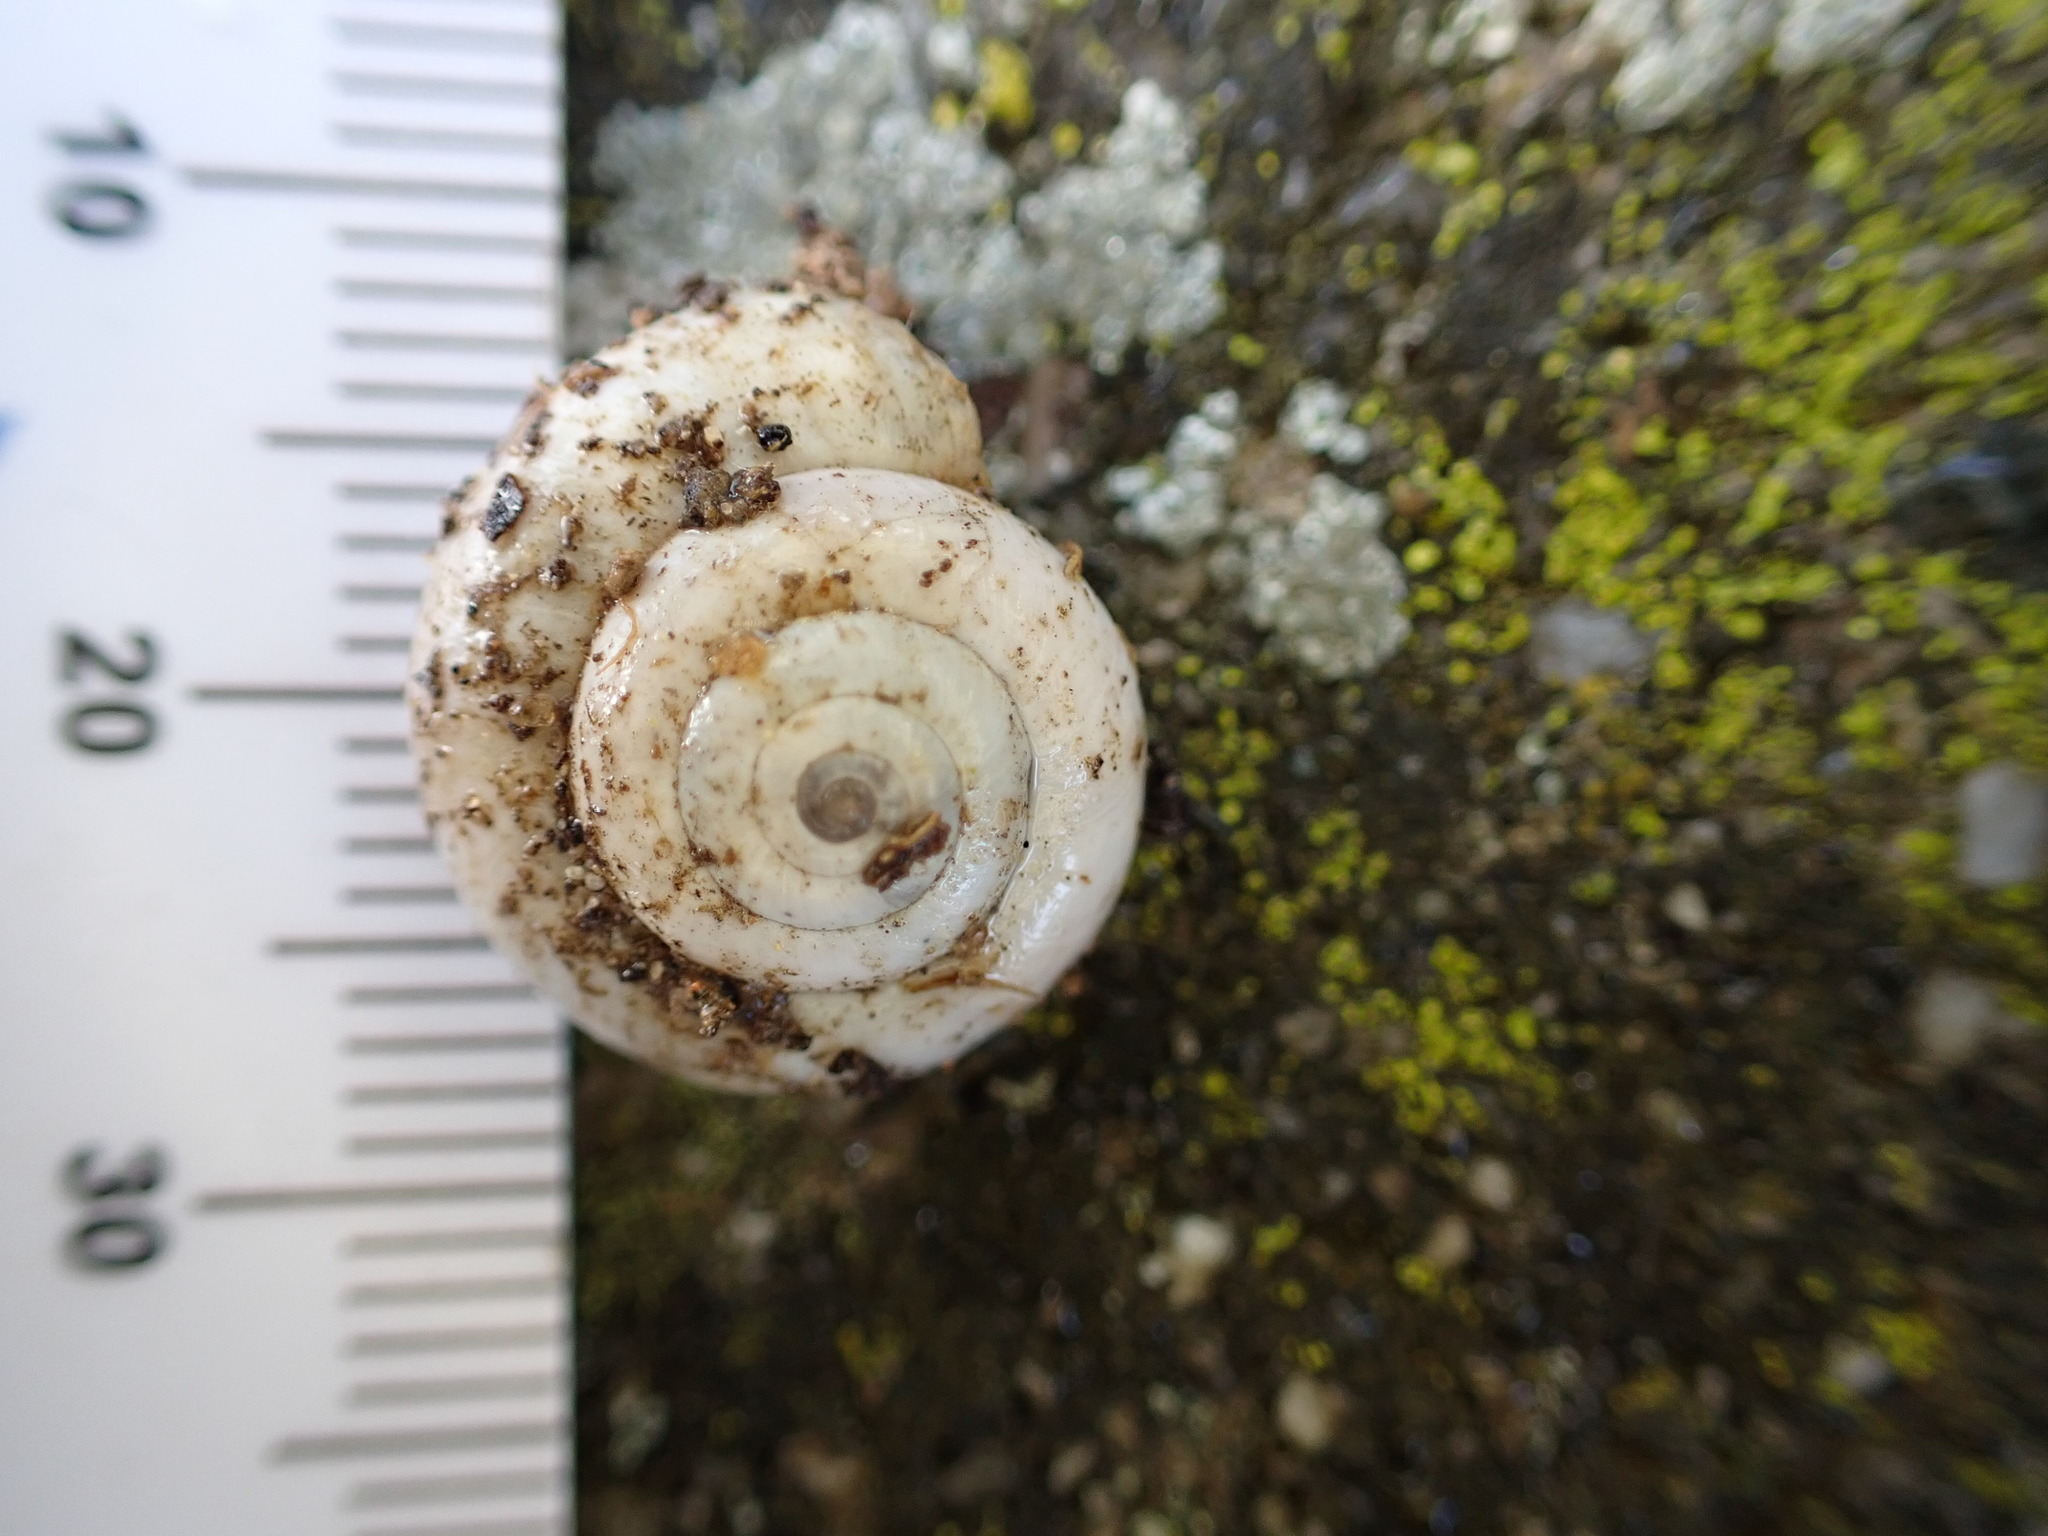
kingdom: Animalia
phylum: Mollusca
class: Gastropoda
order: Stylommatophora
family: Geomitridae
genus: Xeropicta
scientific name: Xeropicta derbentina
